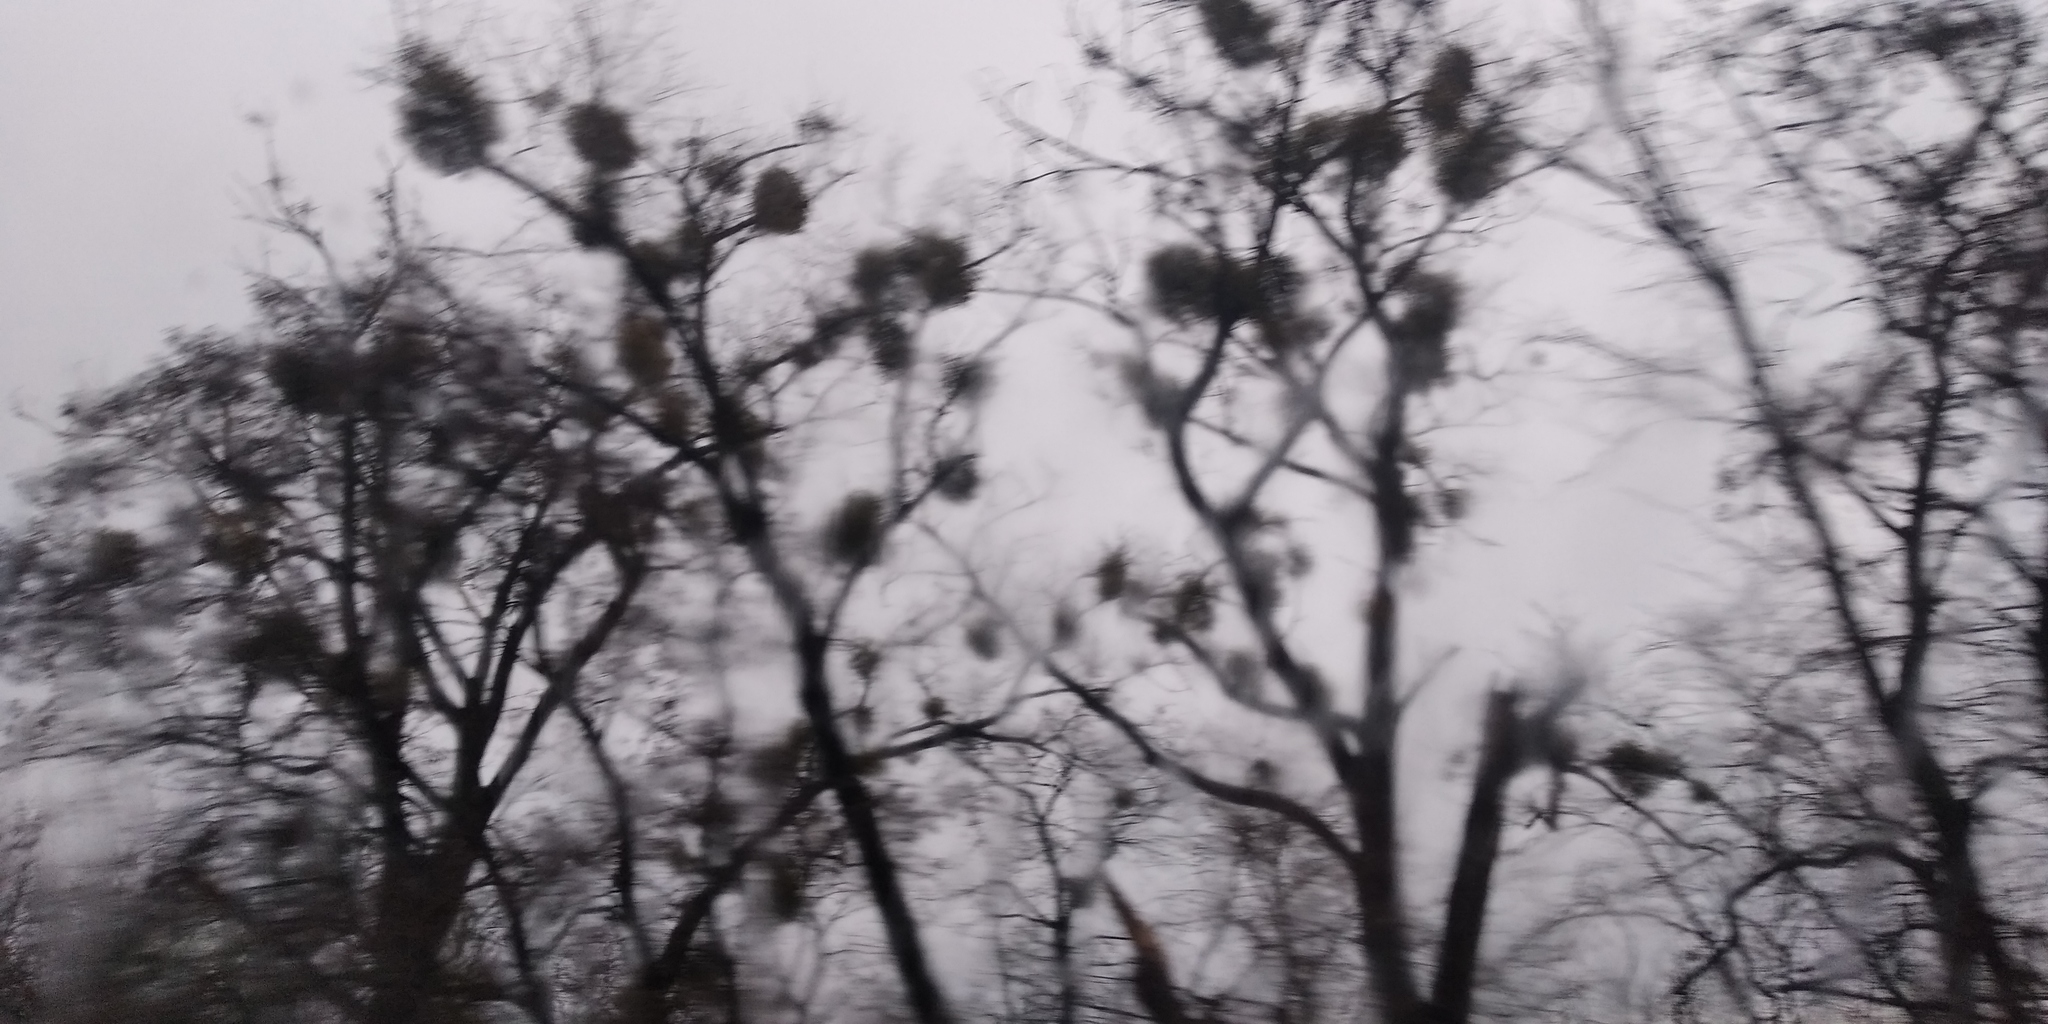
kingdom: Plantae
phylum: Tracheophyta
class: Magnoliopsida
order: Santalales
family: Viscaceae
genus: Viscum
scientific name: Viscum album
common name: Mistletoe
